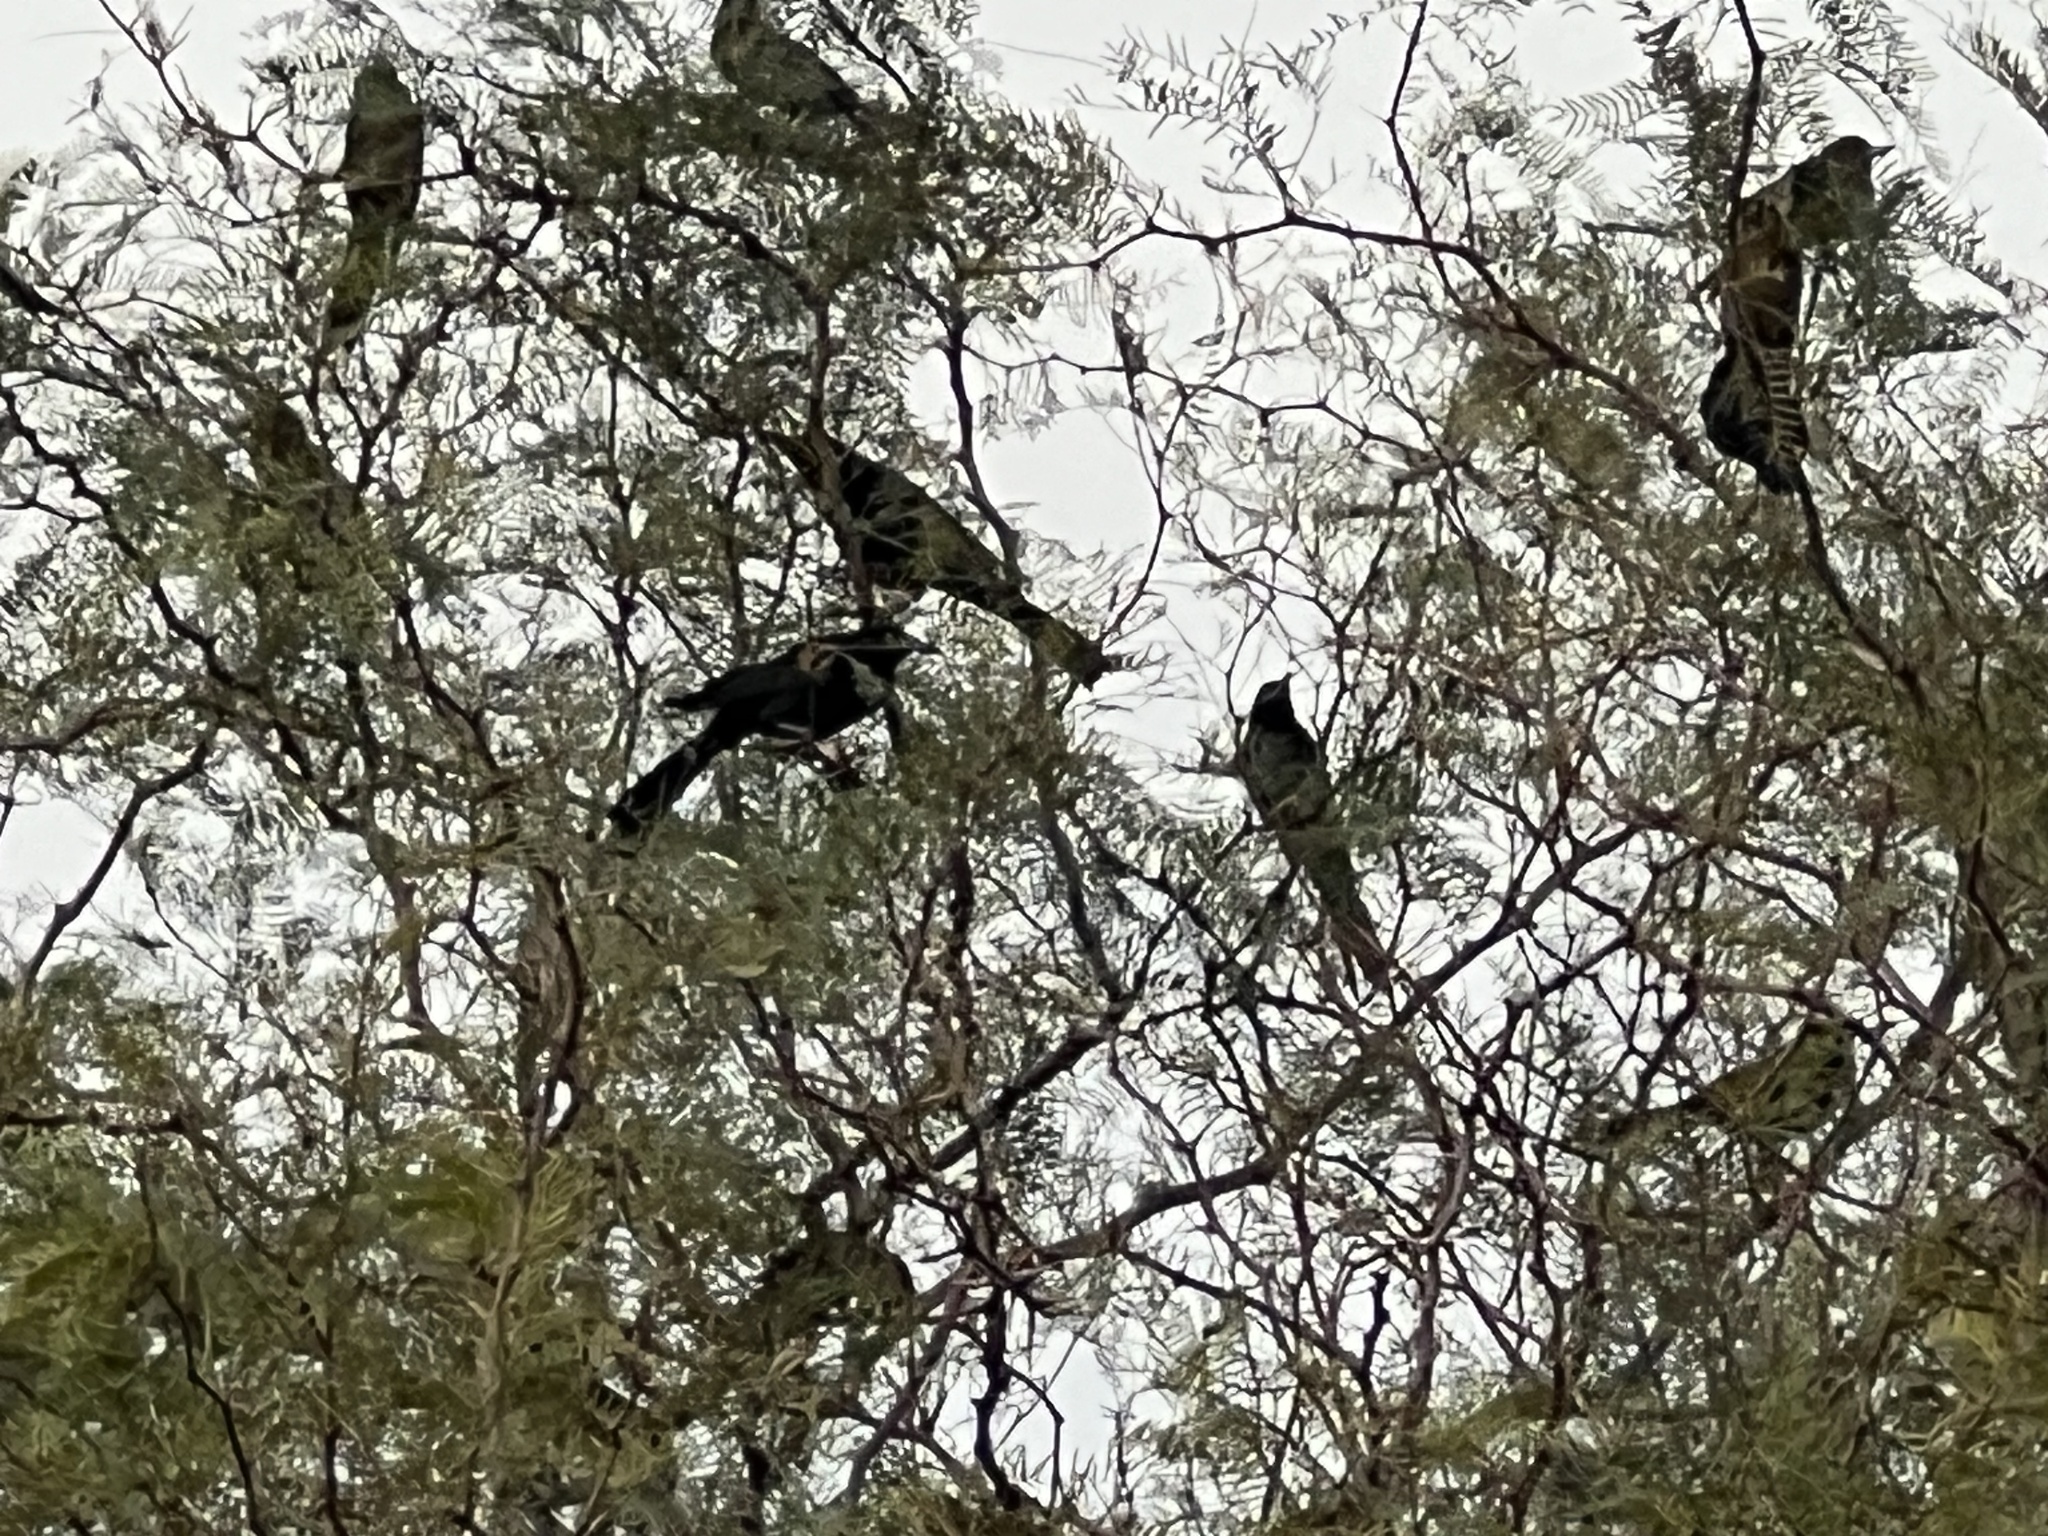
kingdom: Animalia
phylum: Chordata
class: Aves
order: Passeriformes
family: Icteridae
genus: Quiscalus
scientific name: Quiscalus mexicanus
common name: Great-tailed grackle
